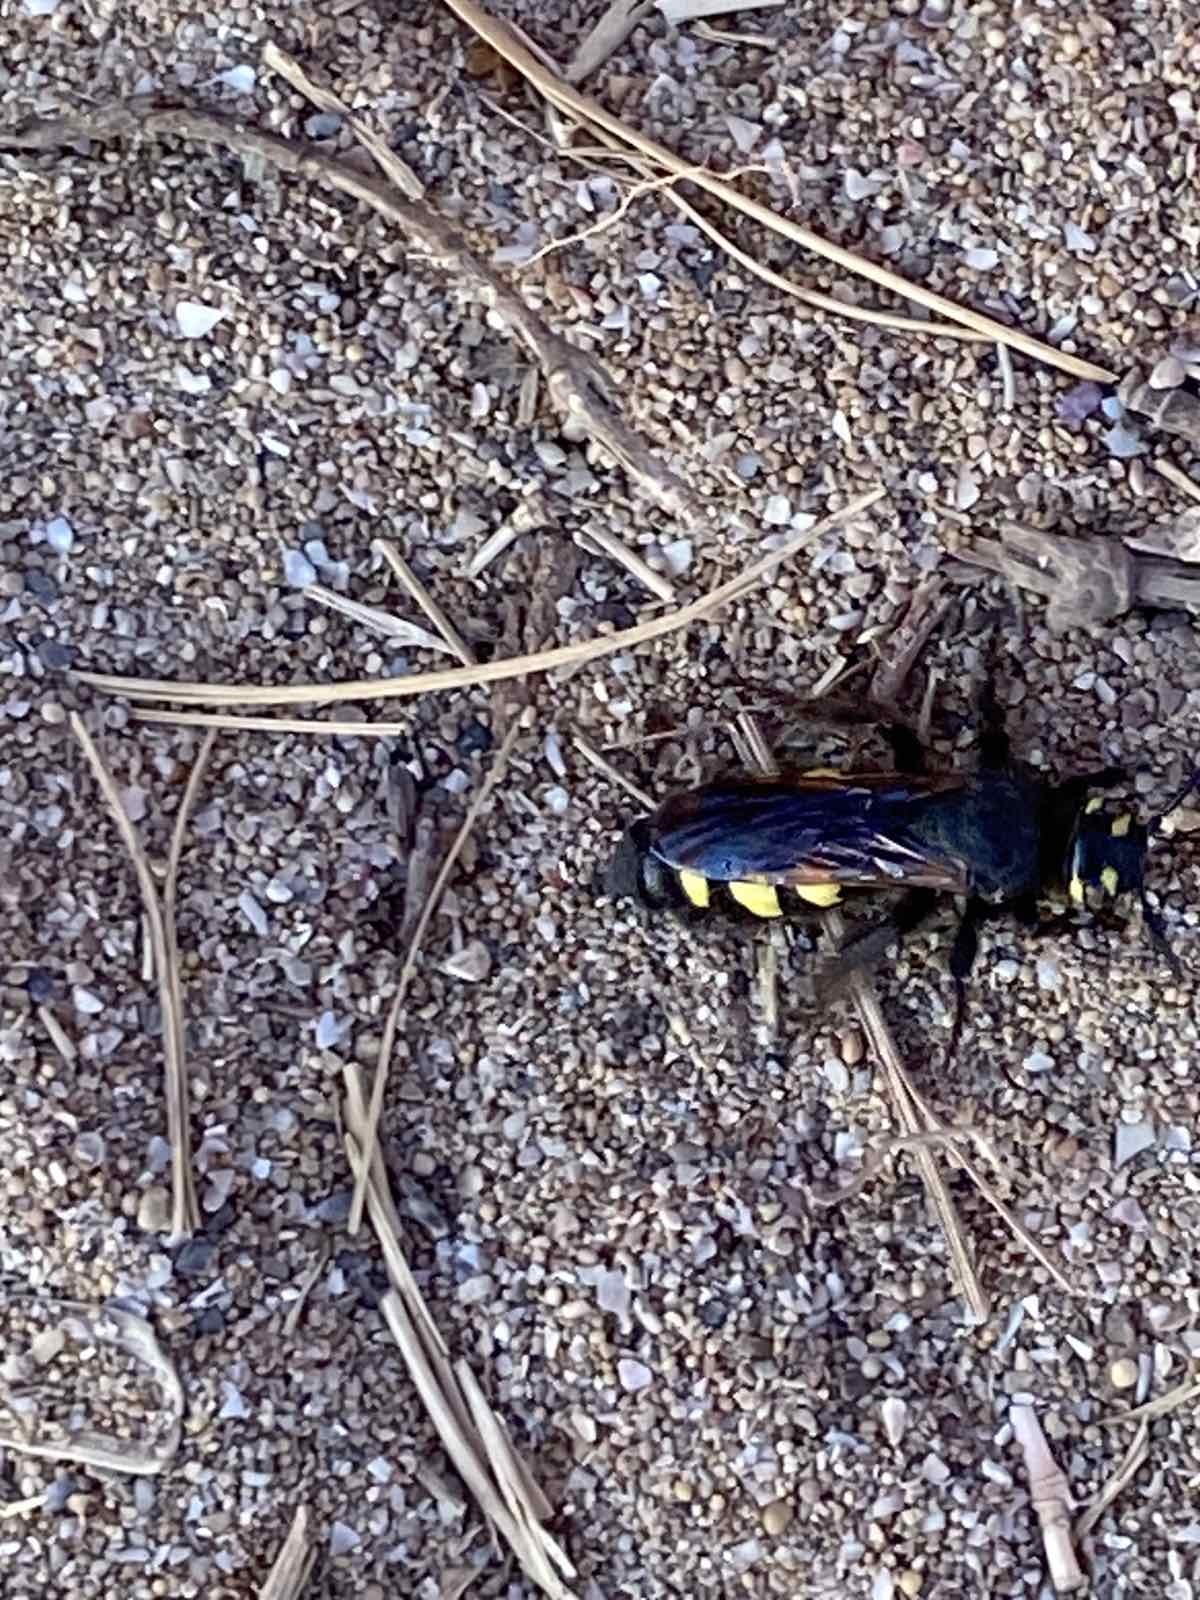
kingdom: Animalia
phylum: Arthropoda
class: Insecta
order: Hymenoptera
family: Vespidae
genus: Vespa
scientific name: Vespa sexmaculata
